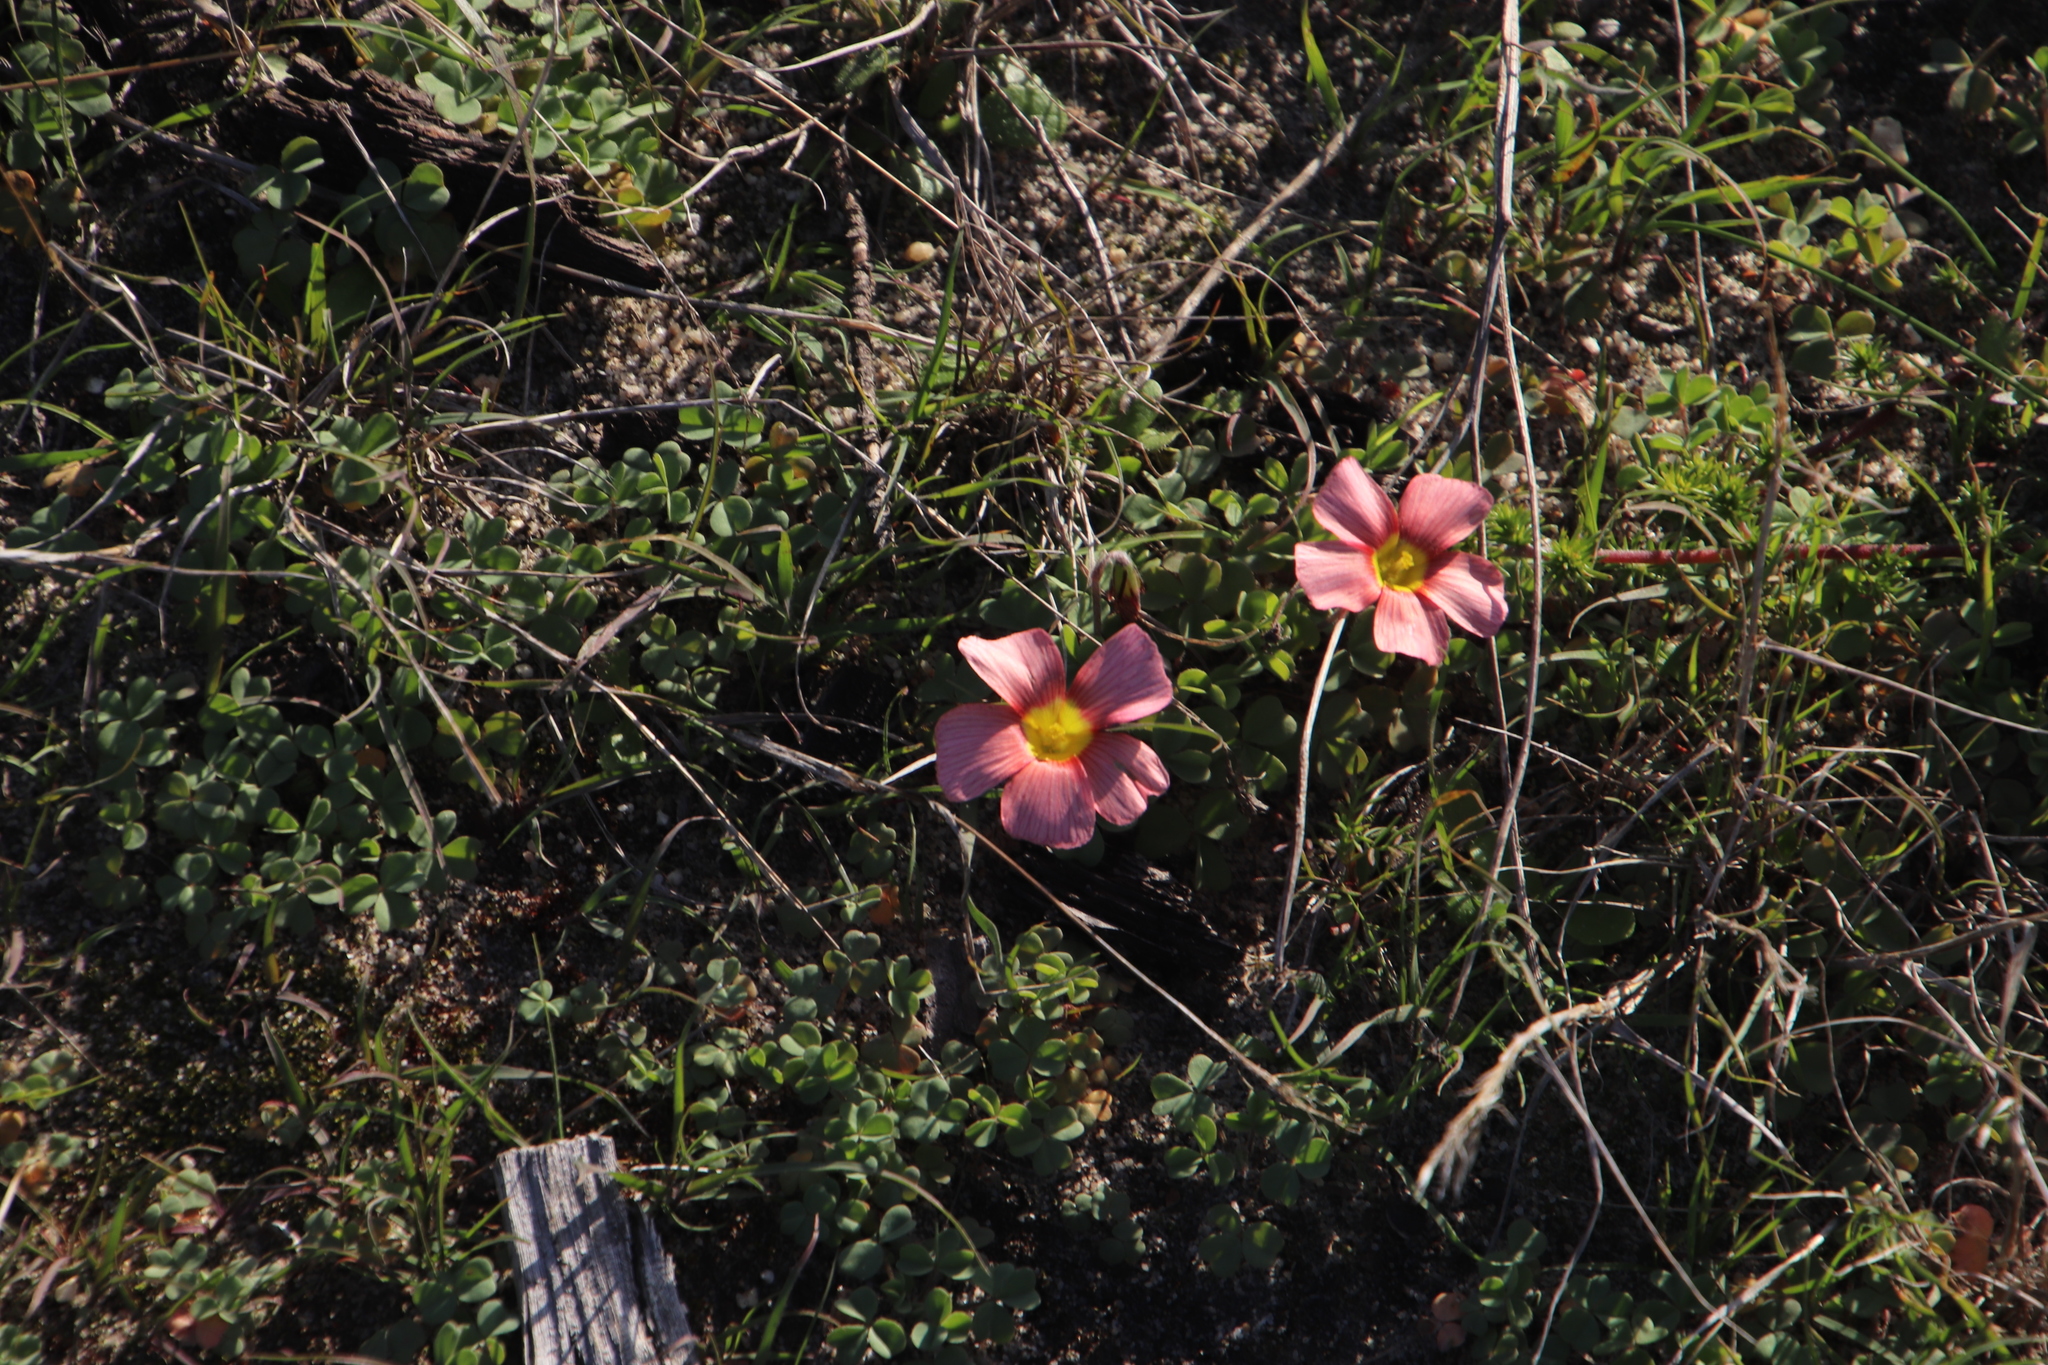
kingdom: Plantae
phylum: Tracheophyta
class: Magnoliopsida
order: Oxalidales
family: Oxalidaceae
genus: Oxalis
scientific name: Oxalis obtusa
